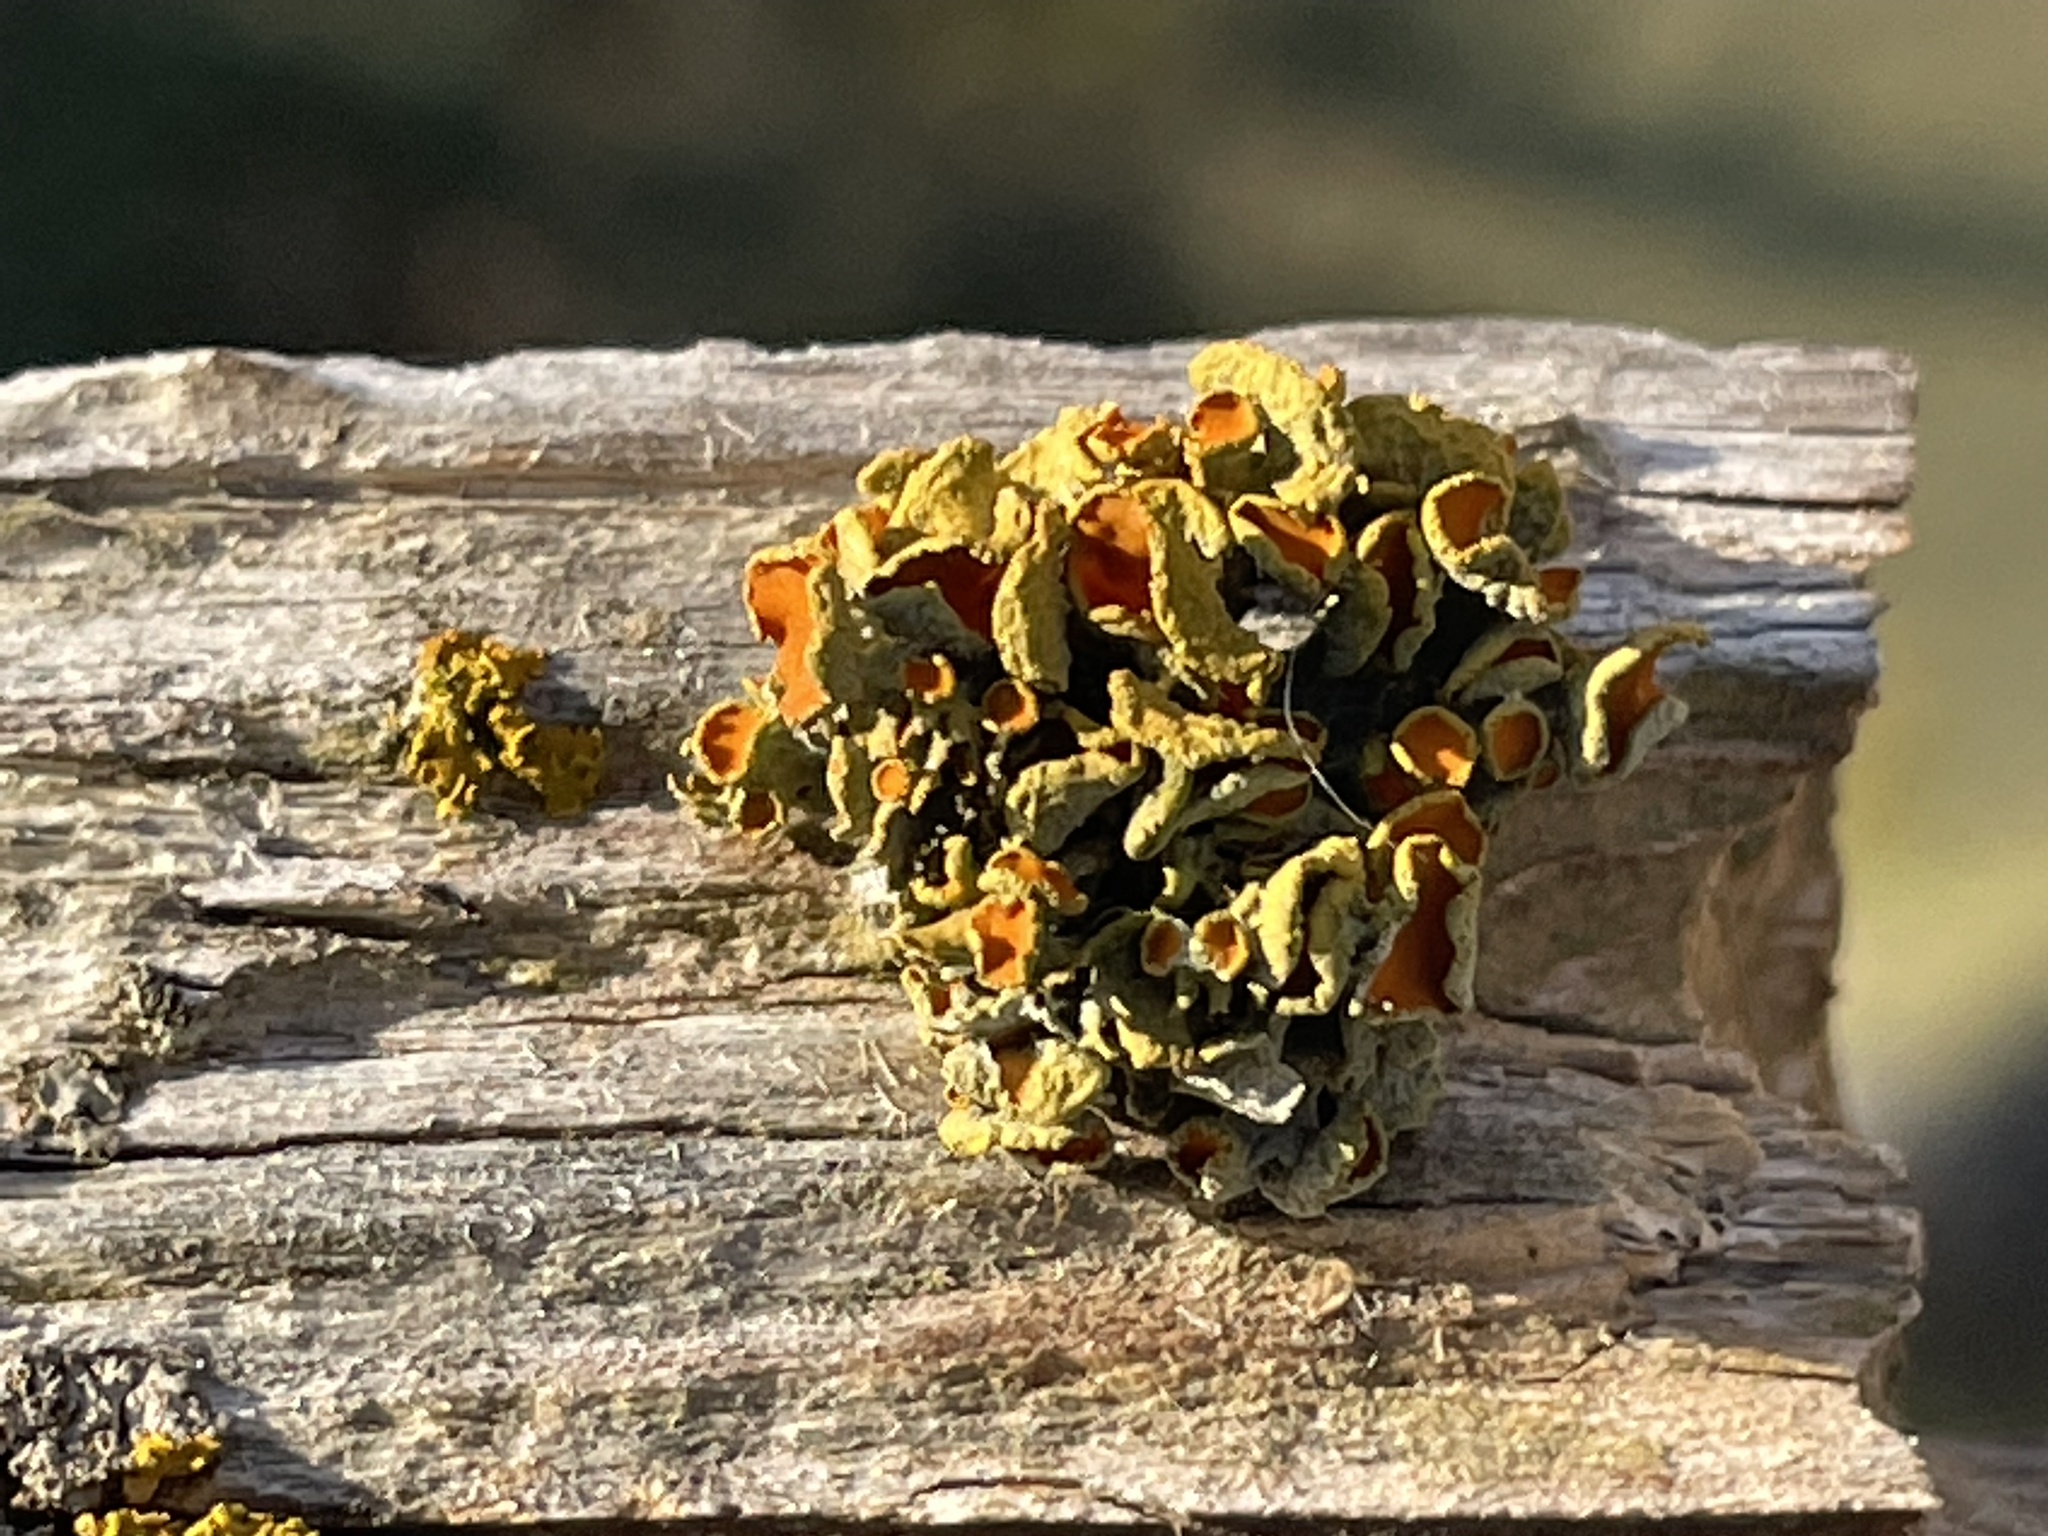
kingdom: Fungi
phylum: Ascomycota
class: Lecanoromycetes
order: Teloschistales
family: Teloschistaceae
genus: Niorma
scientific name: Niorma chrysophthalma
